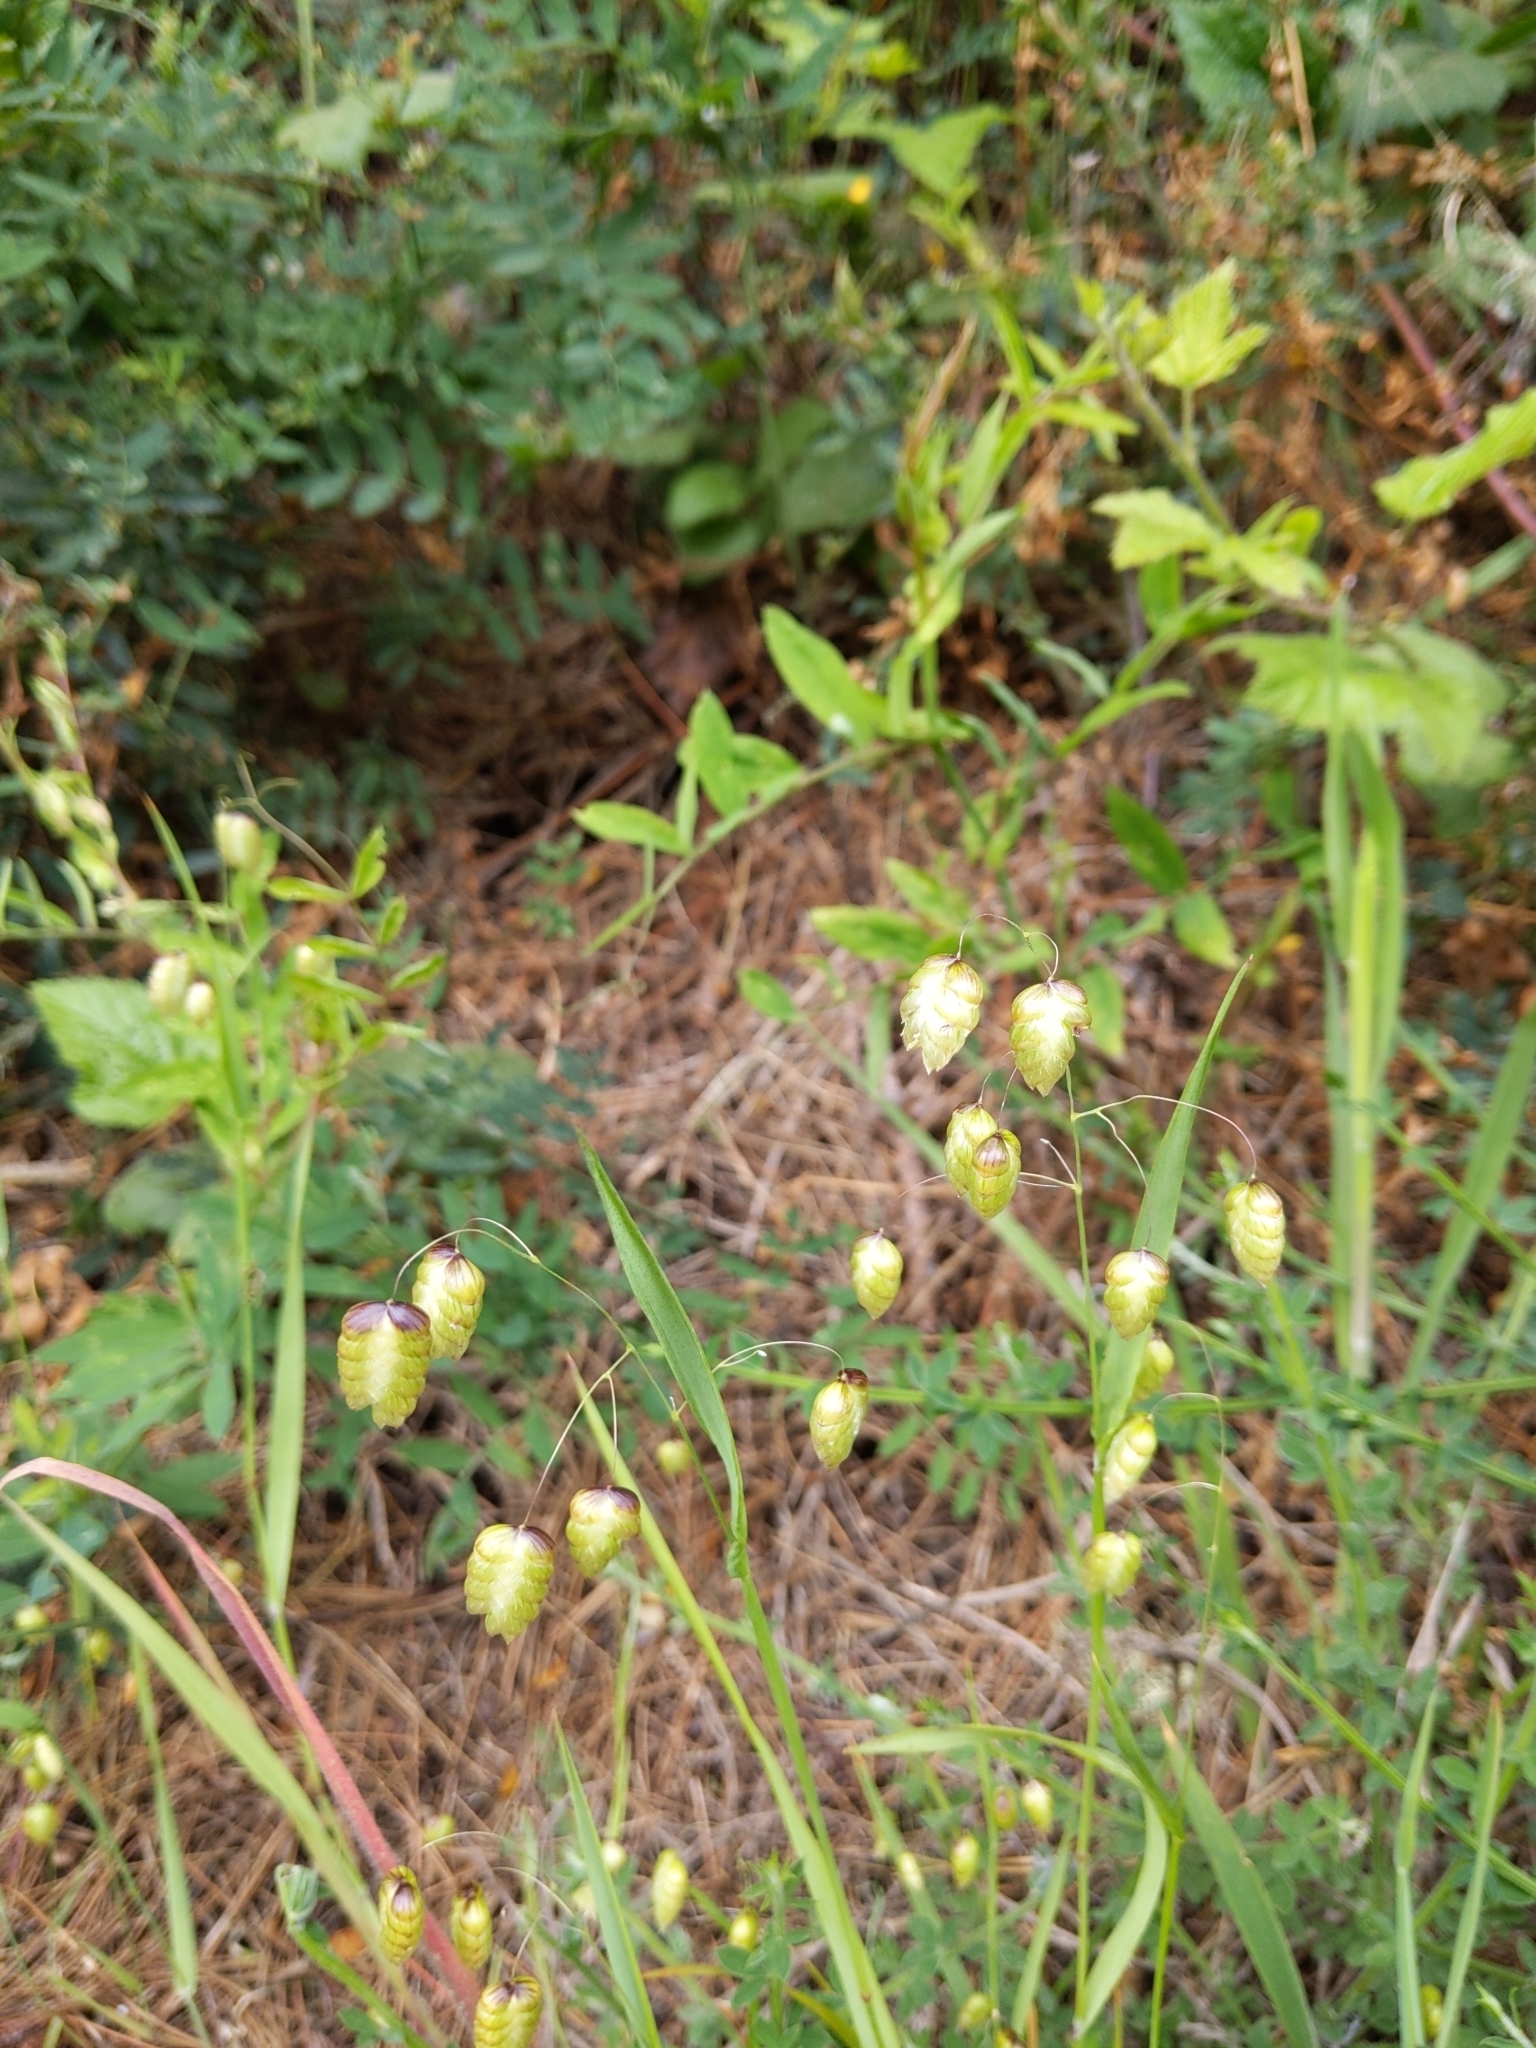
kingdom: Plantae
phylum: Tracheophyta
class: Liliopsida
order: Poales
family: Poaceae
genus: Briza
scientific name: Briza maxima
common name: Big quakinggrass
